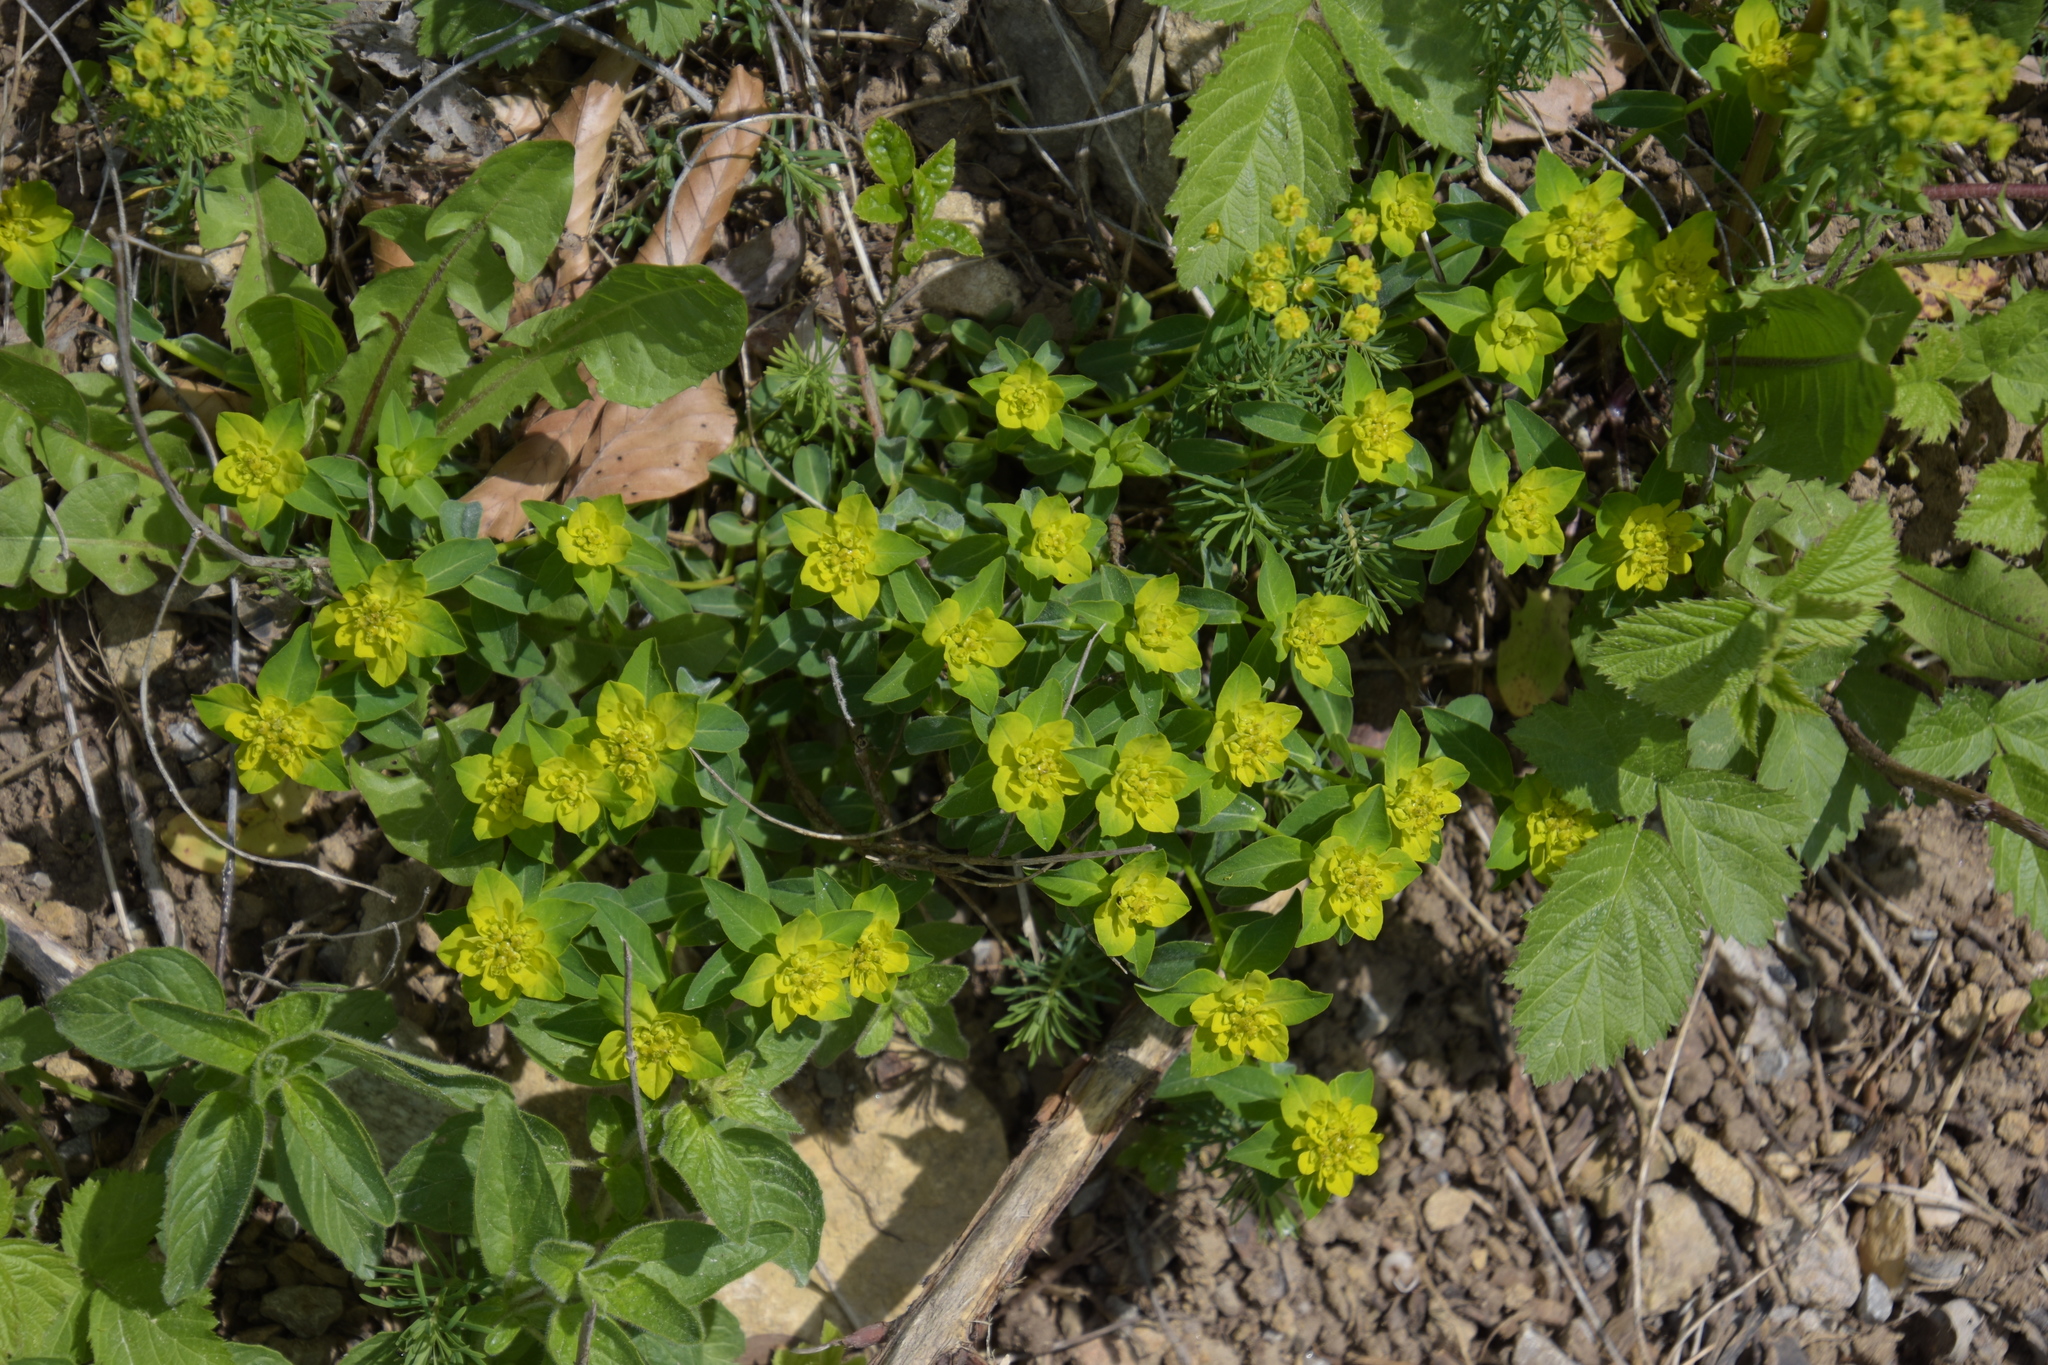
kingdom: Plantae
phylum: Tracheophyta
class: Magnoliopsida
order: Malpighiales
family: Euphorbiaceae
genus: Euphorbia
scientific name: Euphorbia verrucosa
